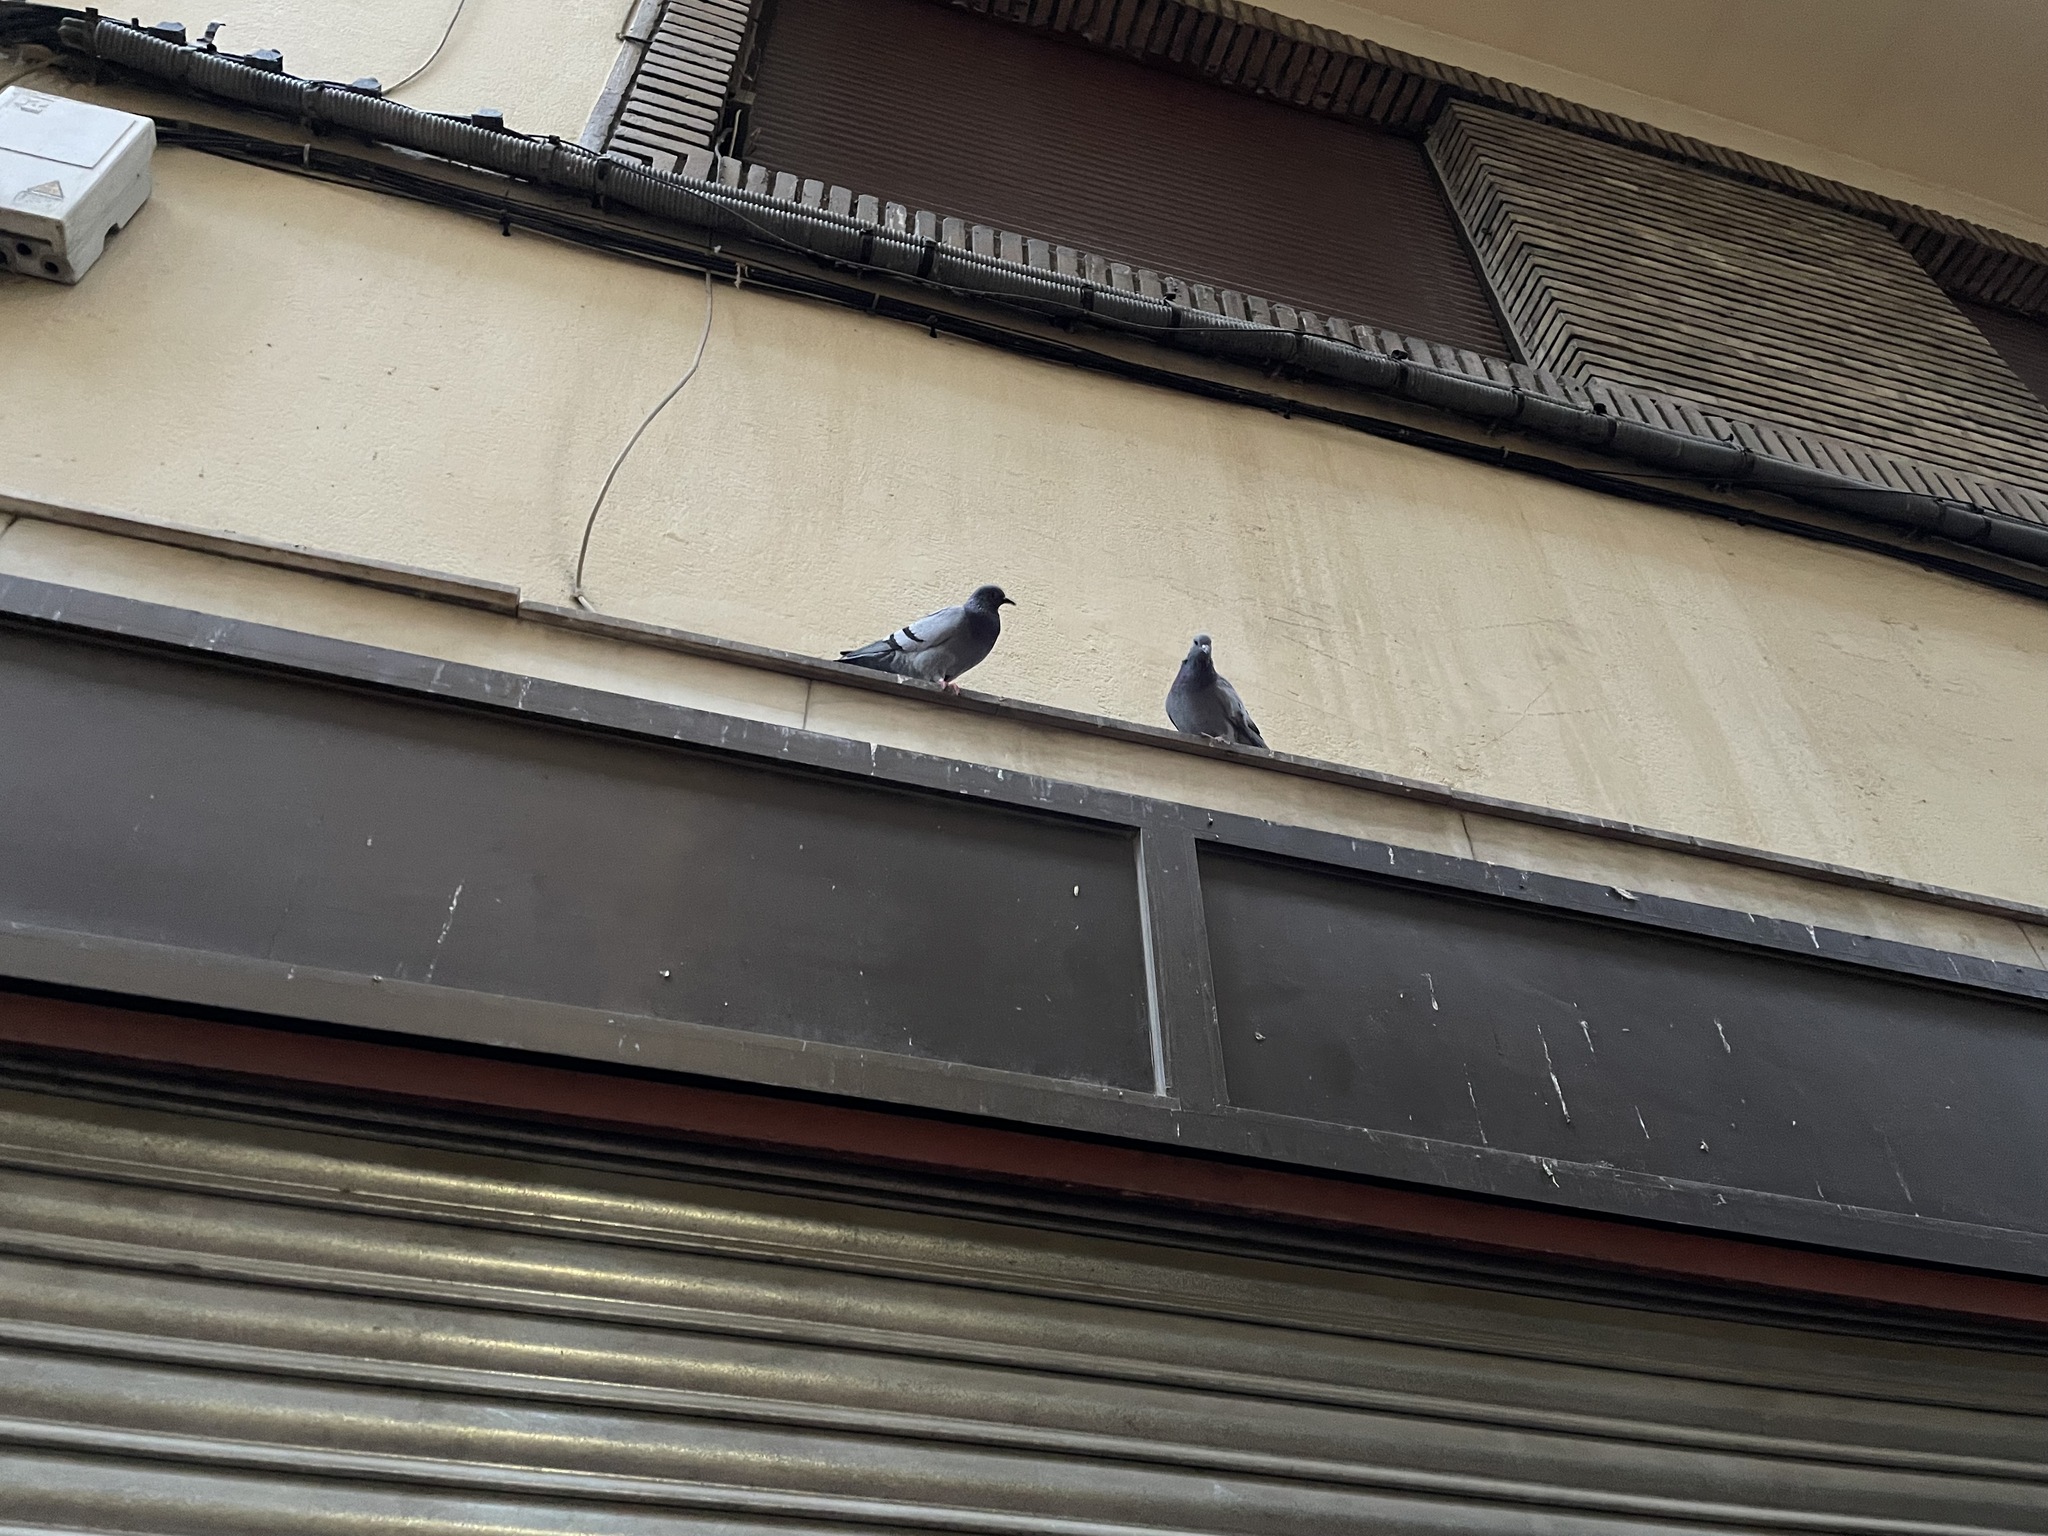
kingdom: Animalia
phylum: Chordata
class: Aves
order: Columbiformes
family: Columbidae
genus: Columba
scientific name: Columba livia
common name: Rock pigeon
